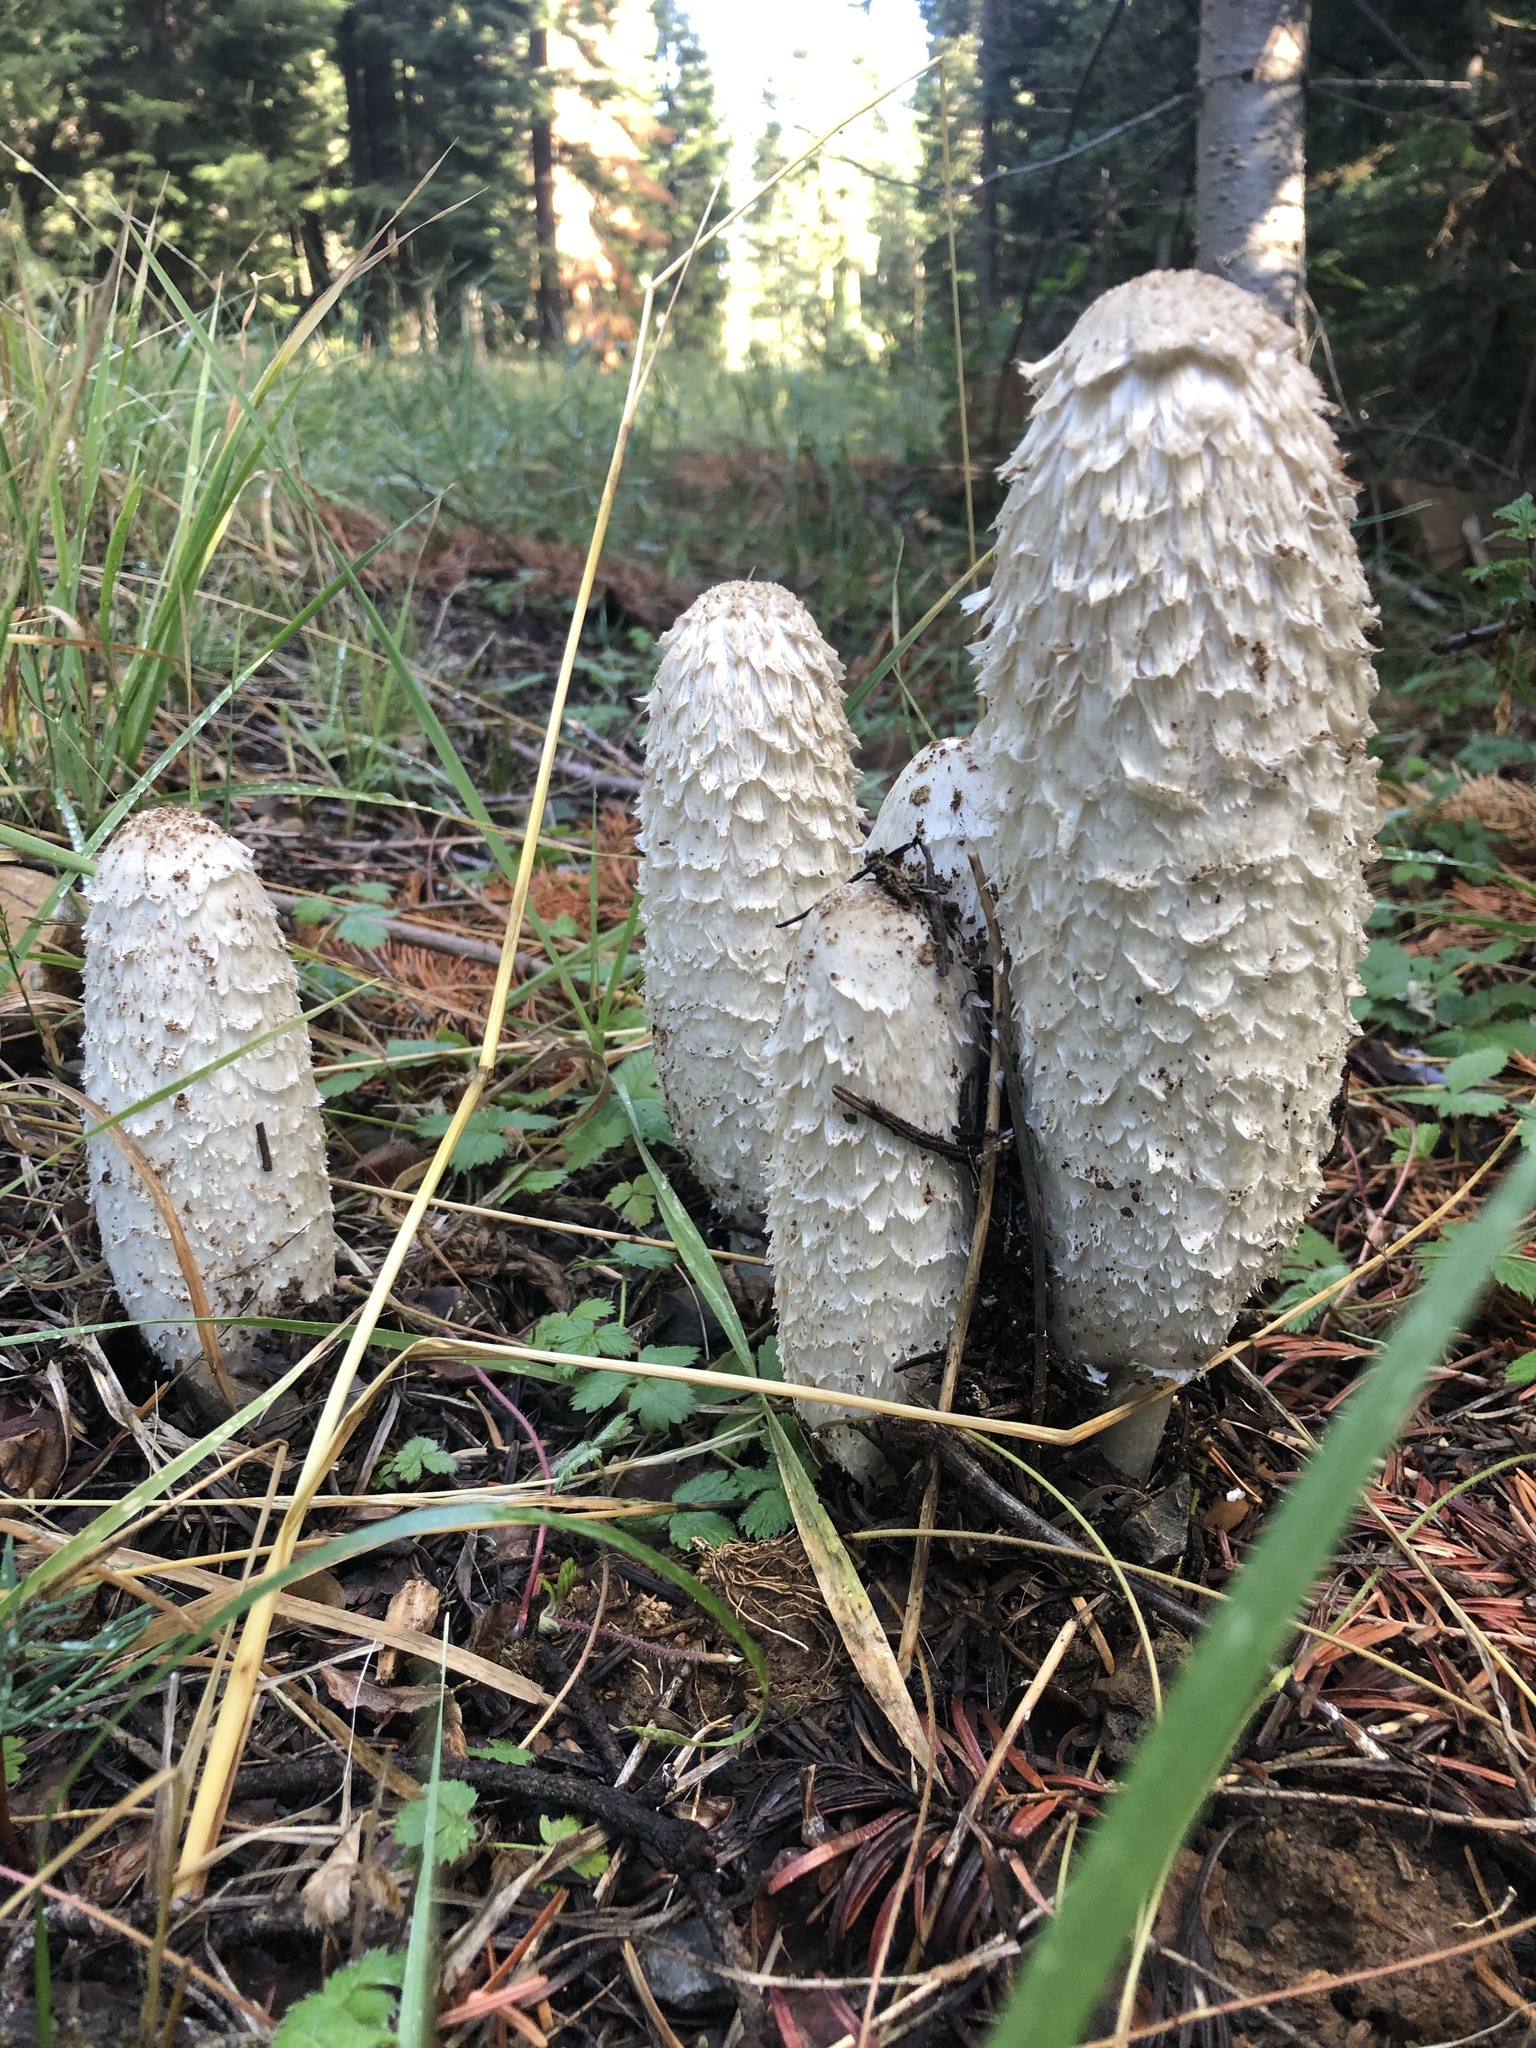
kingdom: Fungi
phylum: Basidiomycota
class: Agaricomycetes
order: Agaricales
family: Agaricaceae
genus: Coprinus
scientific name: Coprinus comatus
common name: Lawyer's wig
